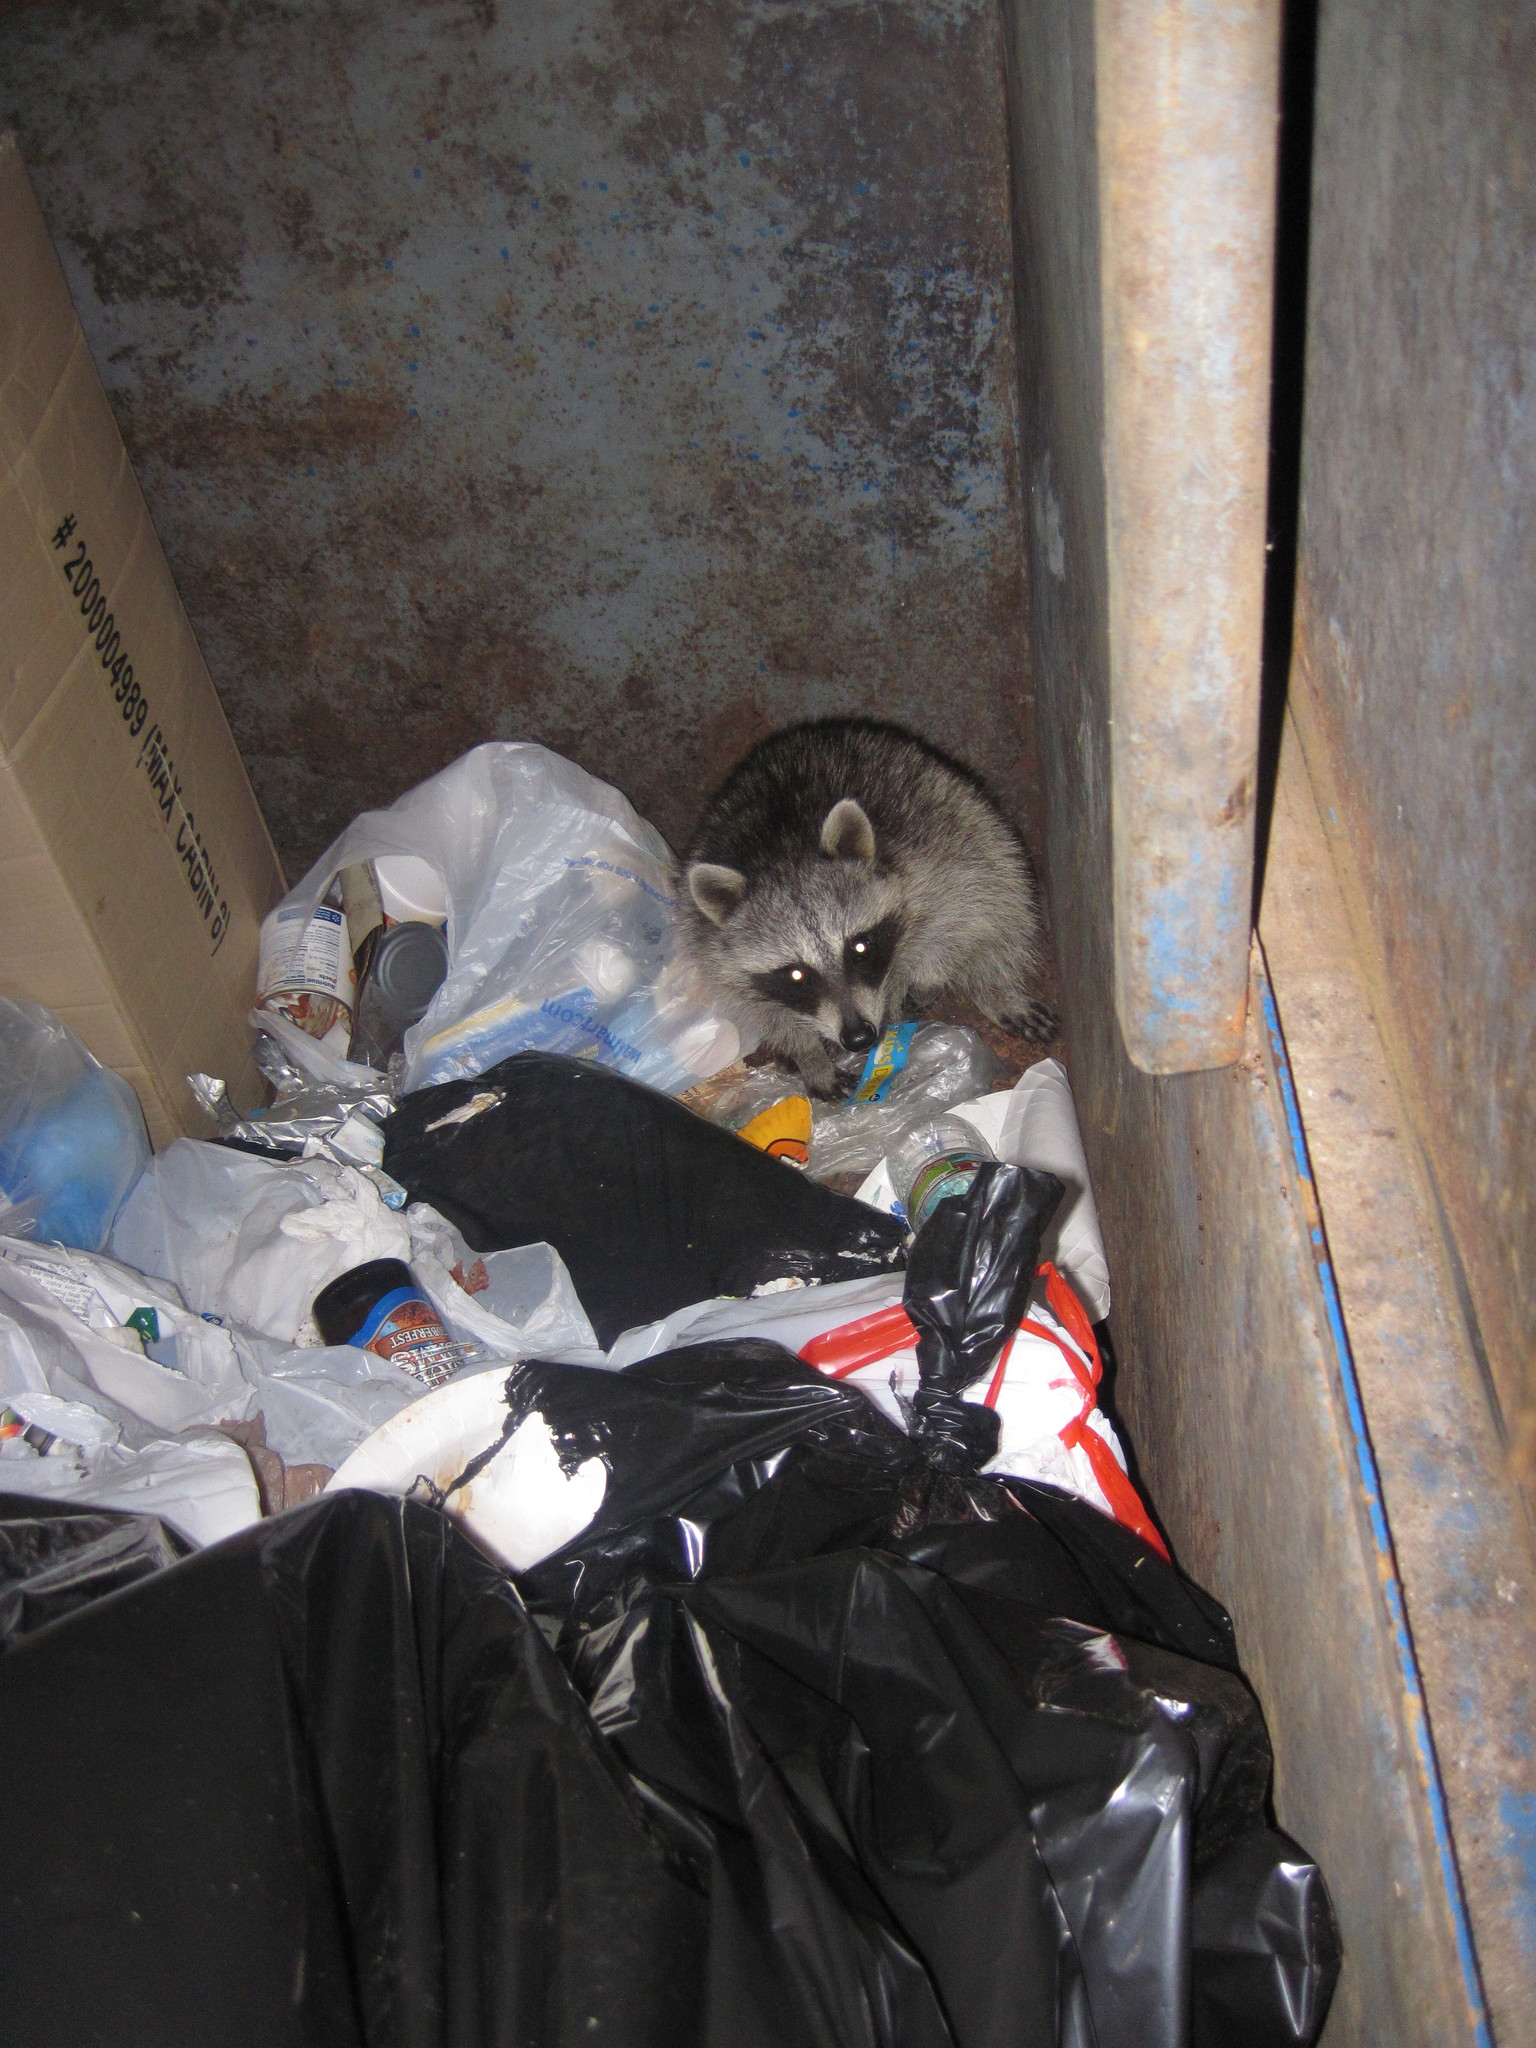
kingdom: Animalia
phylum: Chordata
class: Mammalia
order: Carnivora
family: Procyonidae
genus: Procyon
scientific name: Procyon lotor
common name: Raccoon
